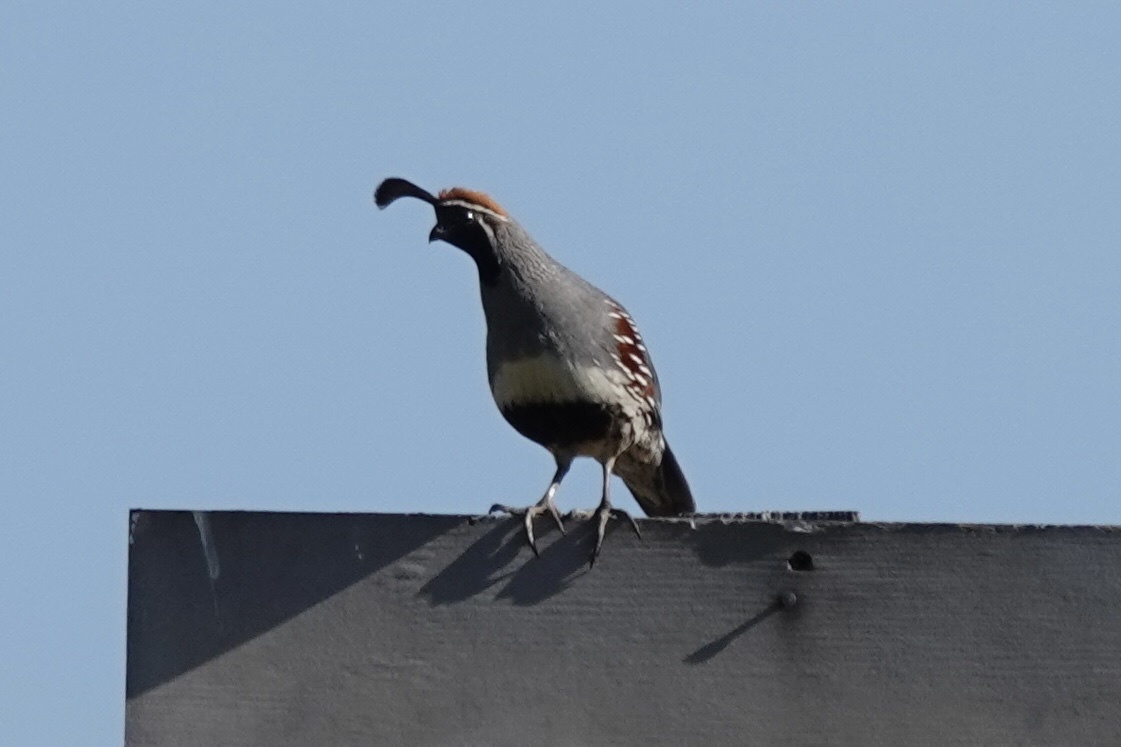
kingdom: Animalia
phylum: Chordata
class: Aves
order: Galliformes
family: Odontophoridae
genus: Callipepla
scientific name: Callipepla gambelii
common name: Gambel's quail
